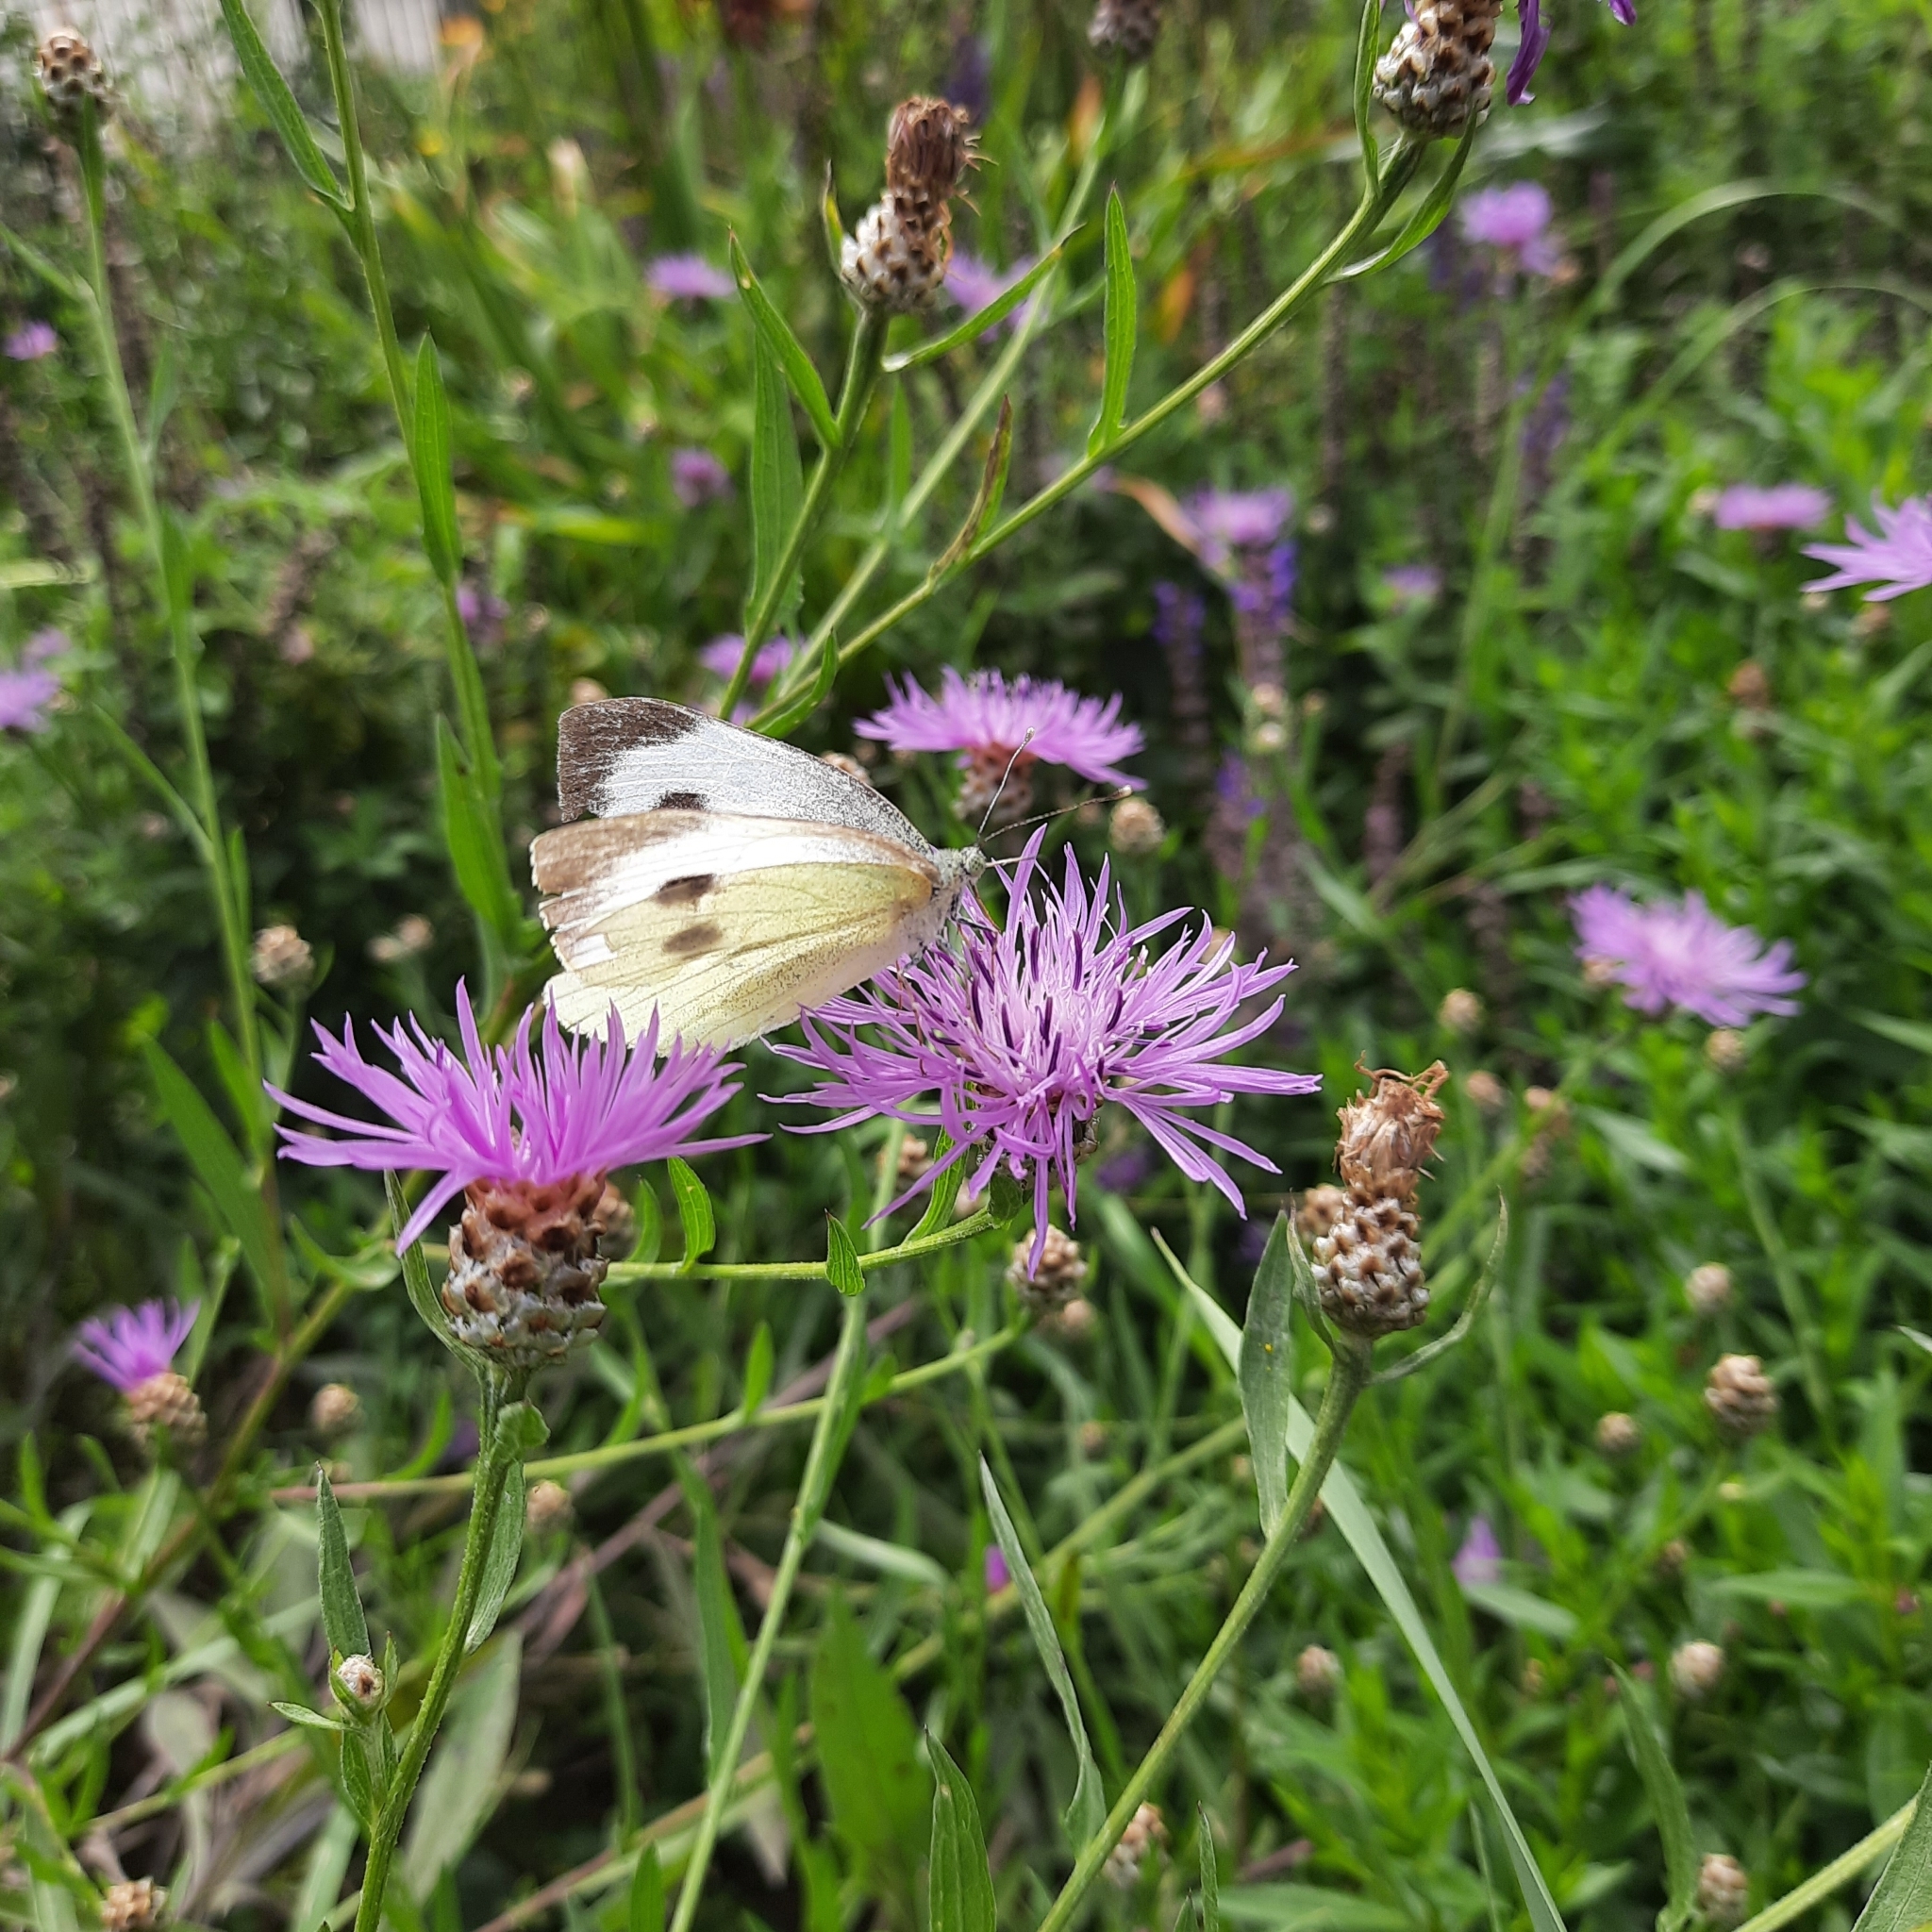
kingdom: Animalia
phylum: Arthropoda
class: Insecta
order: Lepidoptera
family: Pieridae
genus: Pieris
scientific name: Pieris brassicae
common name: Large white
